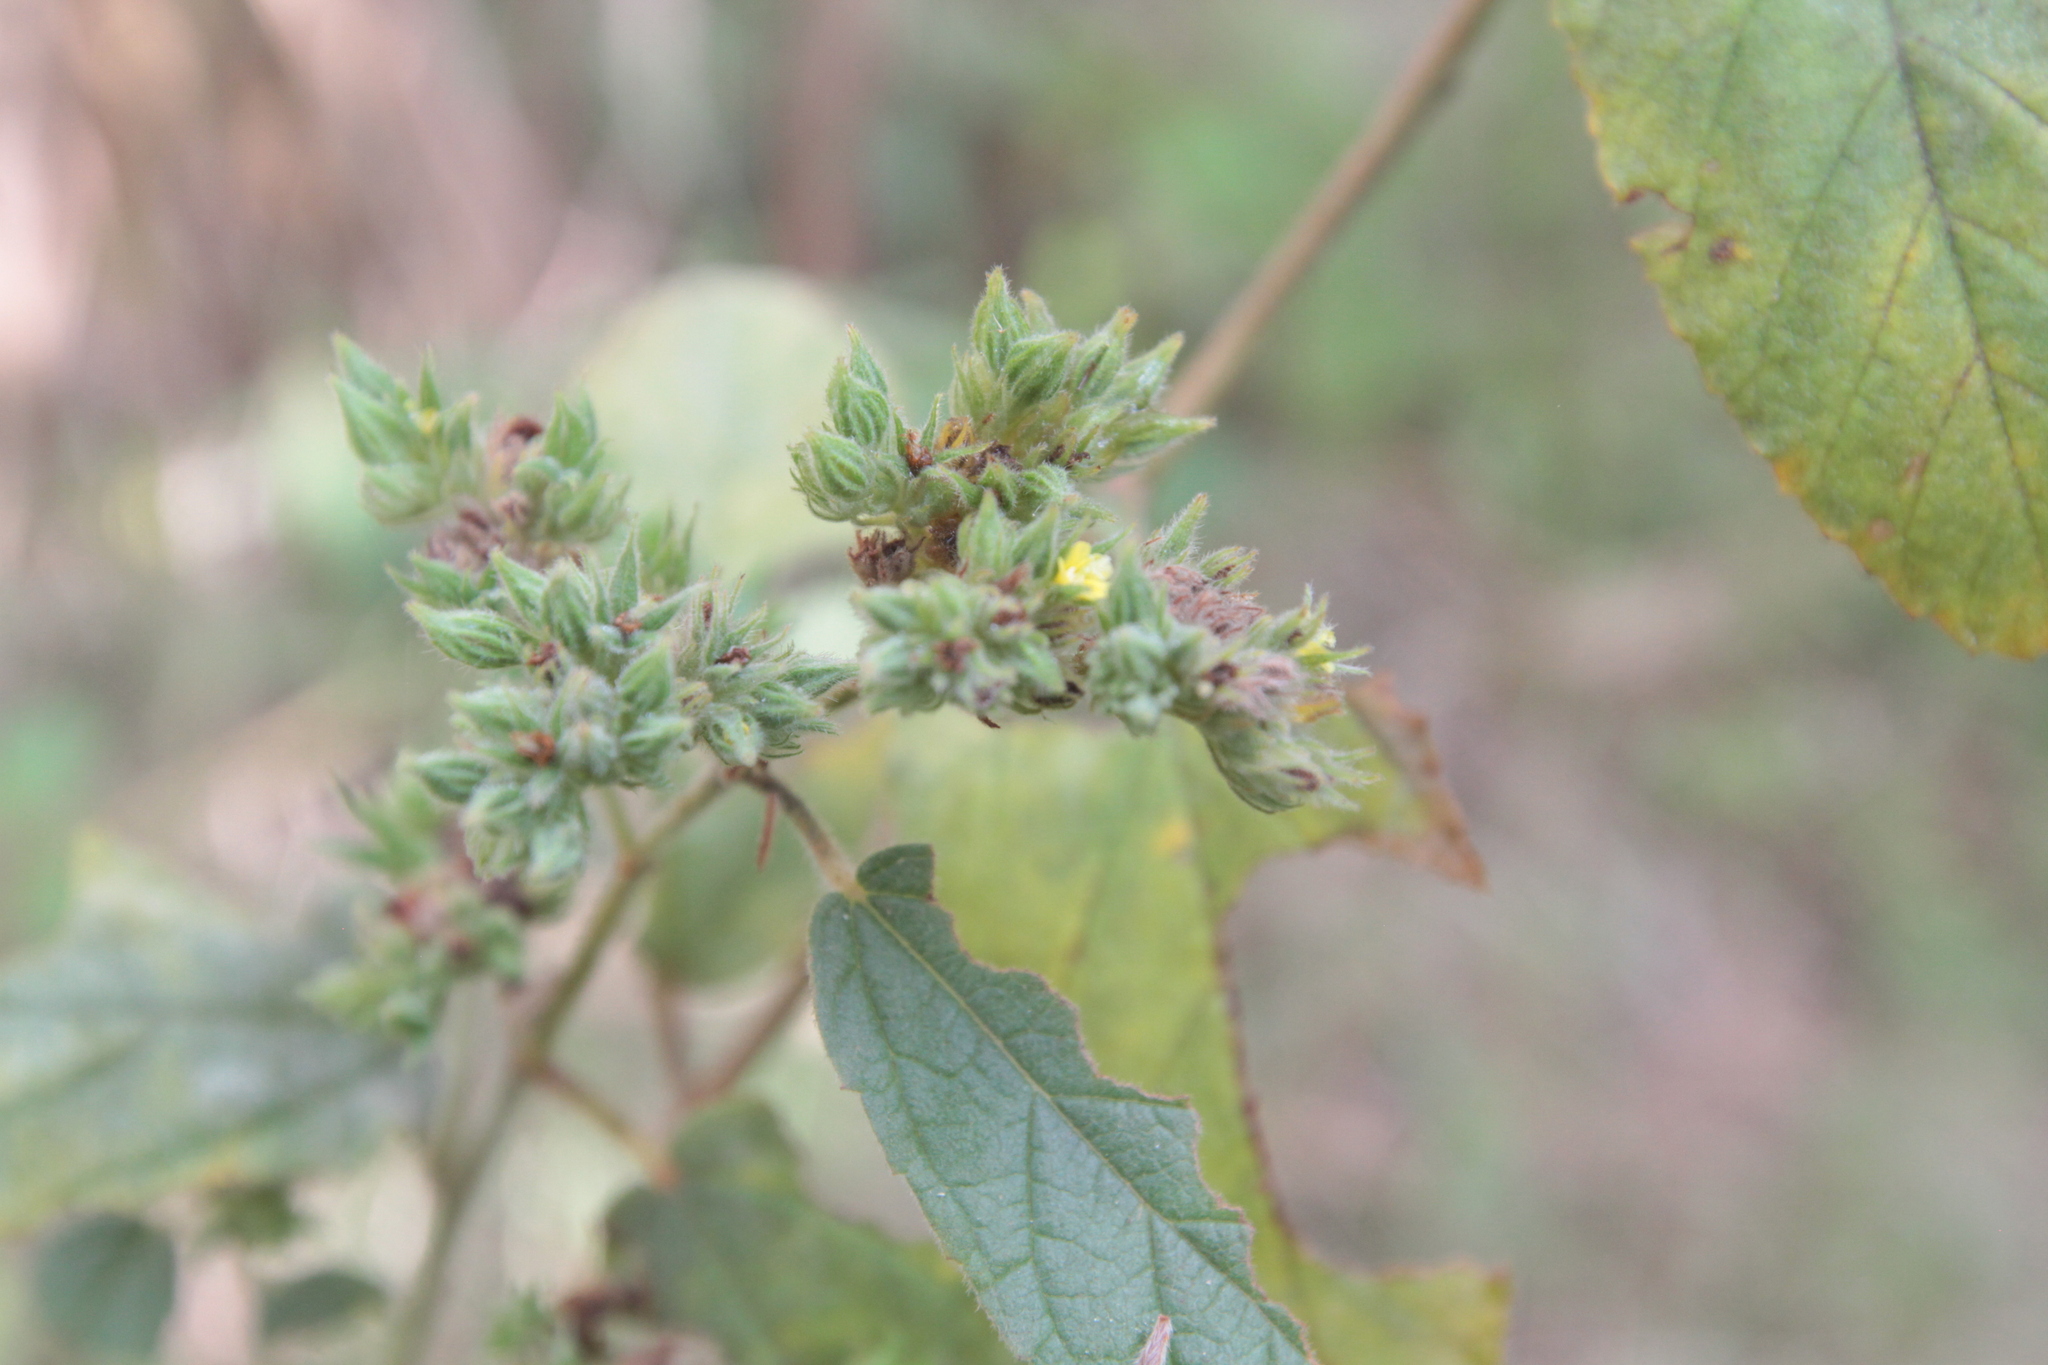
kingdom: Plantae
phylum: Tracheophyta
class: Magnoliopsida
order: Malvales
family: Malvaceae
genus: Waltheria
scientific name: Waltheria indica
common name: Leather-coat
